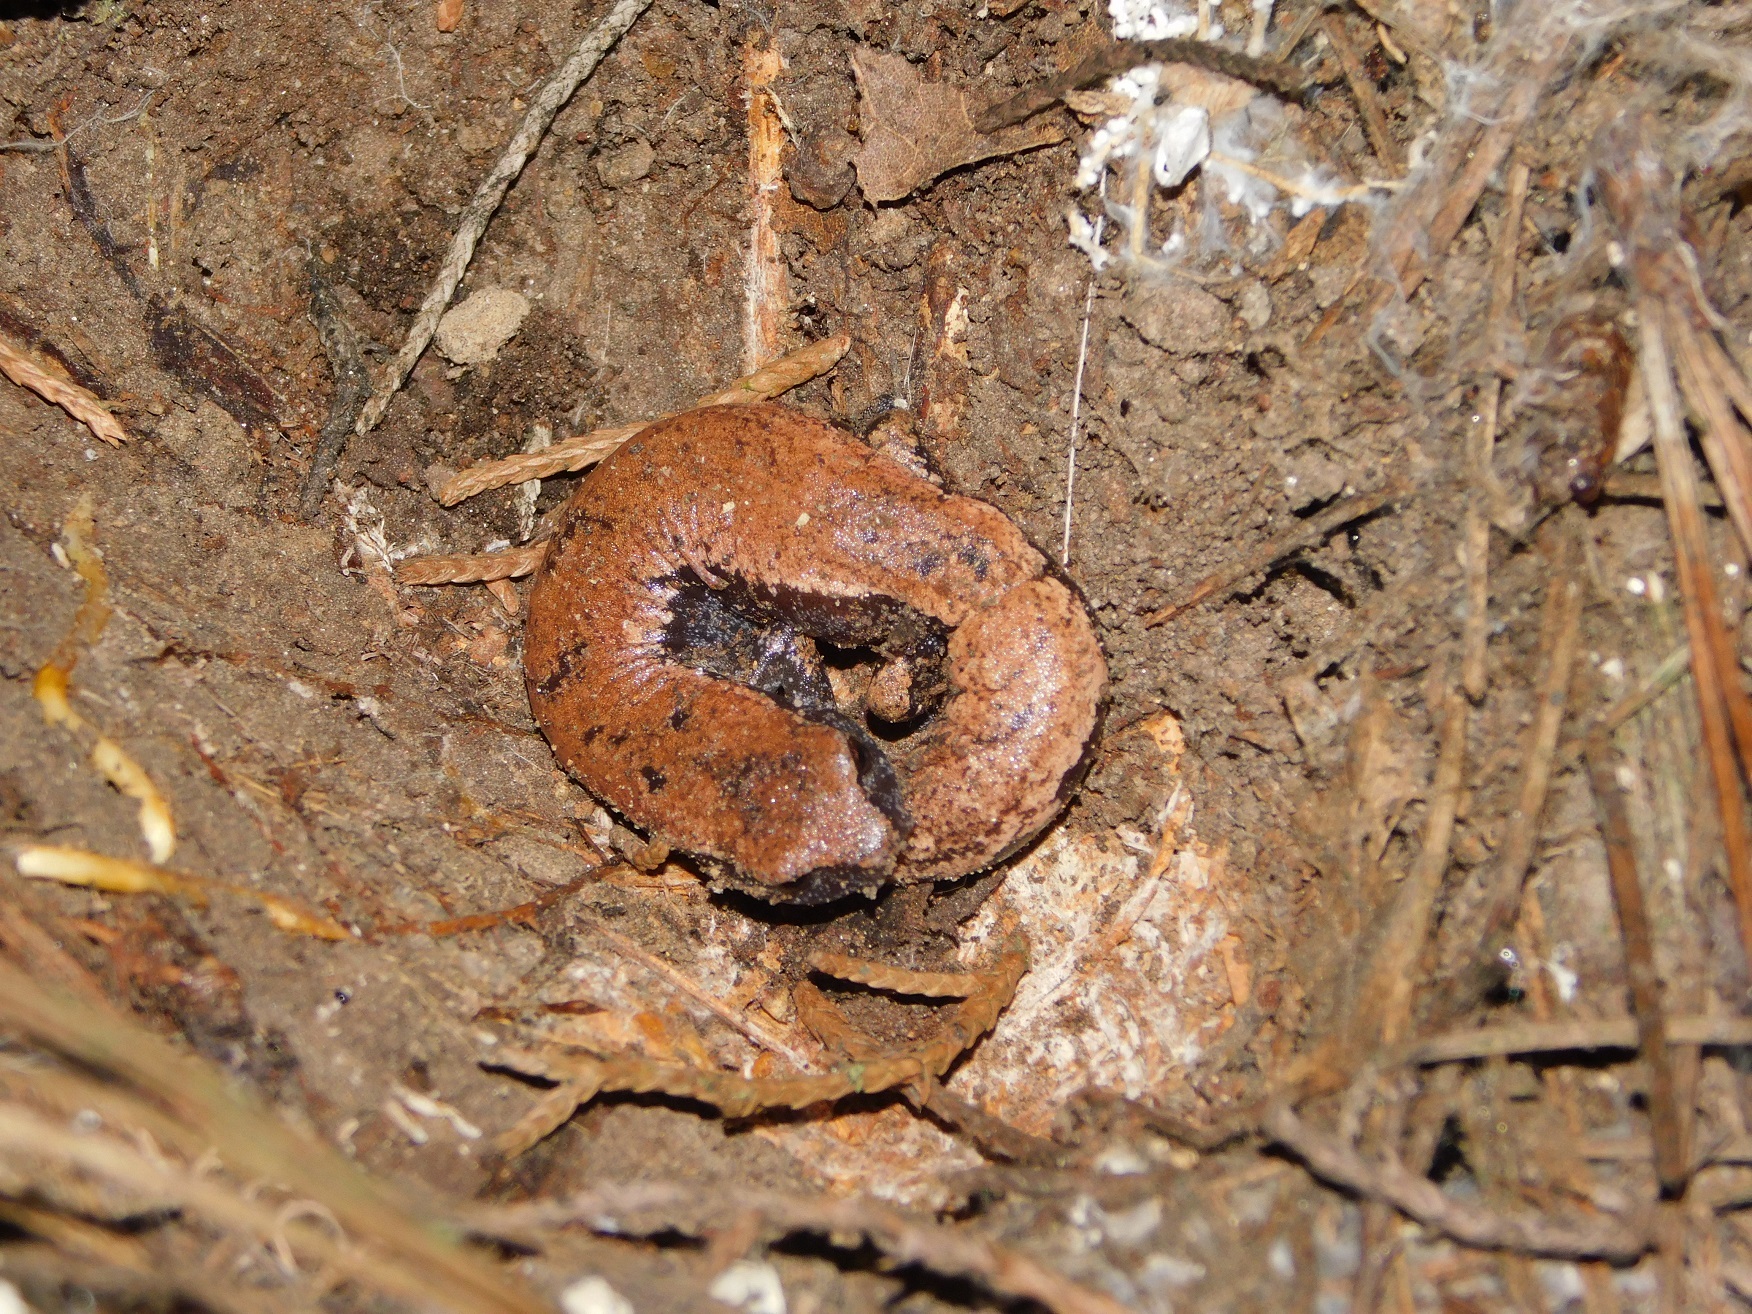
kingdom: Animalia
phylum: Chordata
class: Amphibia
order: Caudata
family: Plethodontidae
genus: Bolitoglossa
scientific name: Bolitoglossa hartwegi
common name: Hartweg's mushroomtongue salamander
